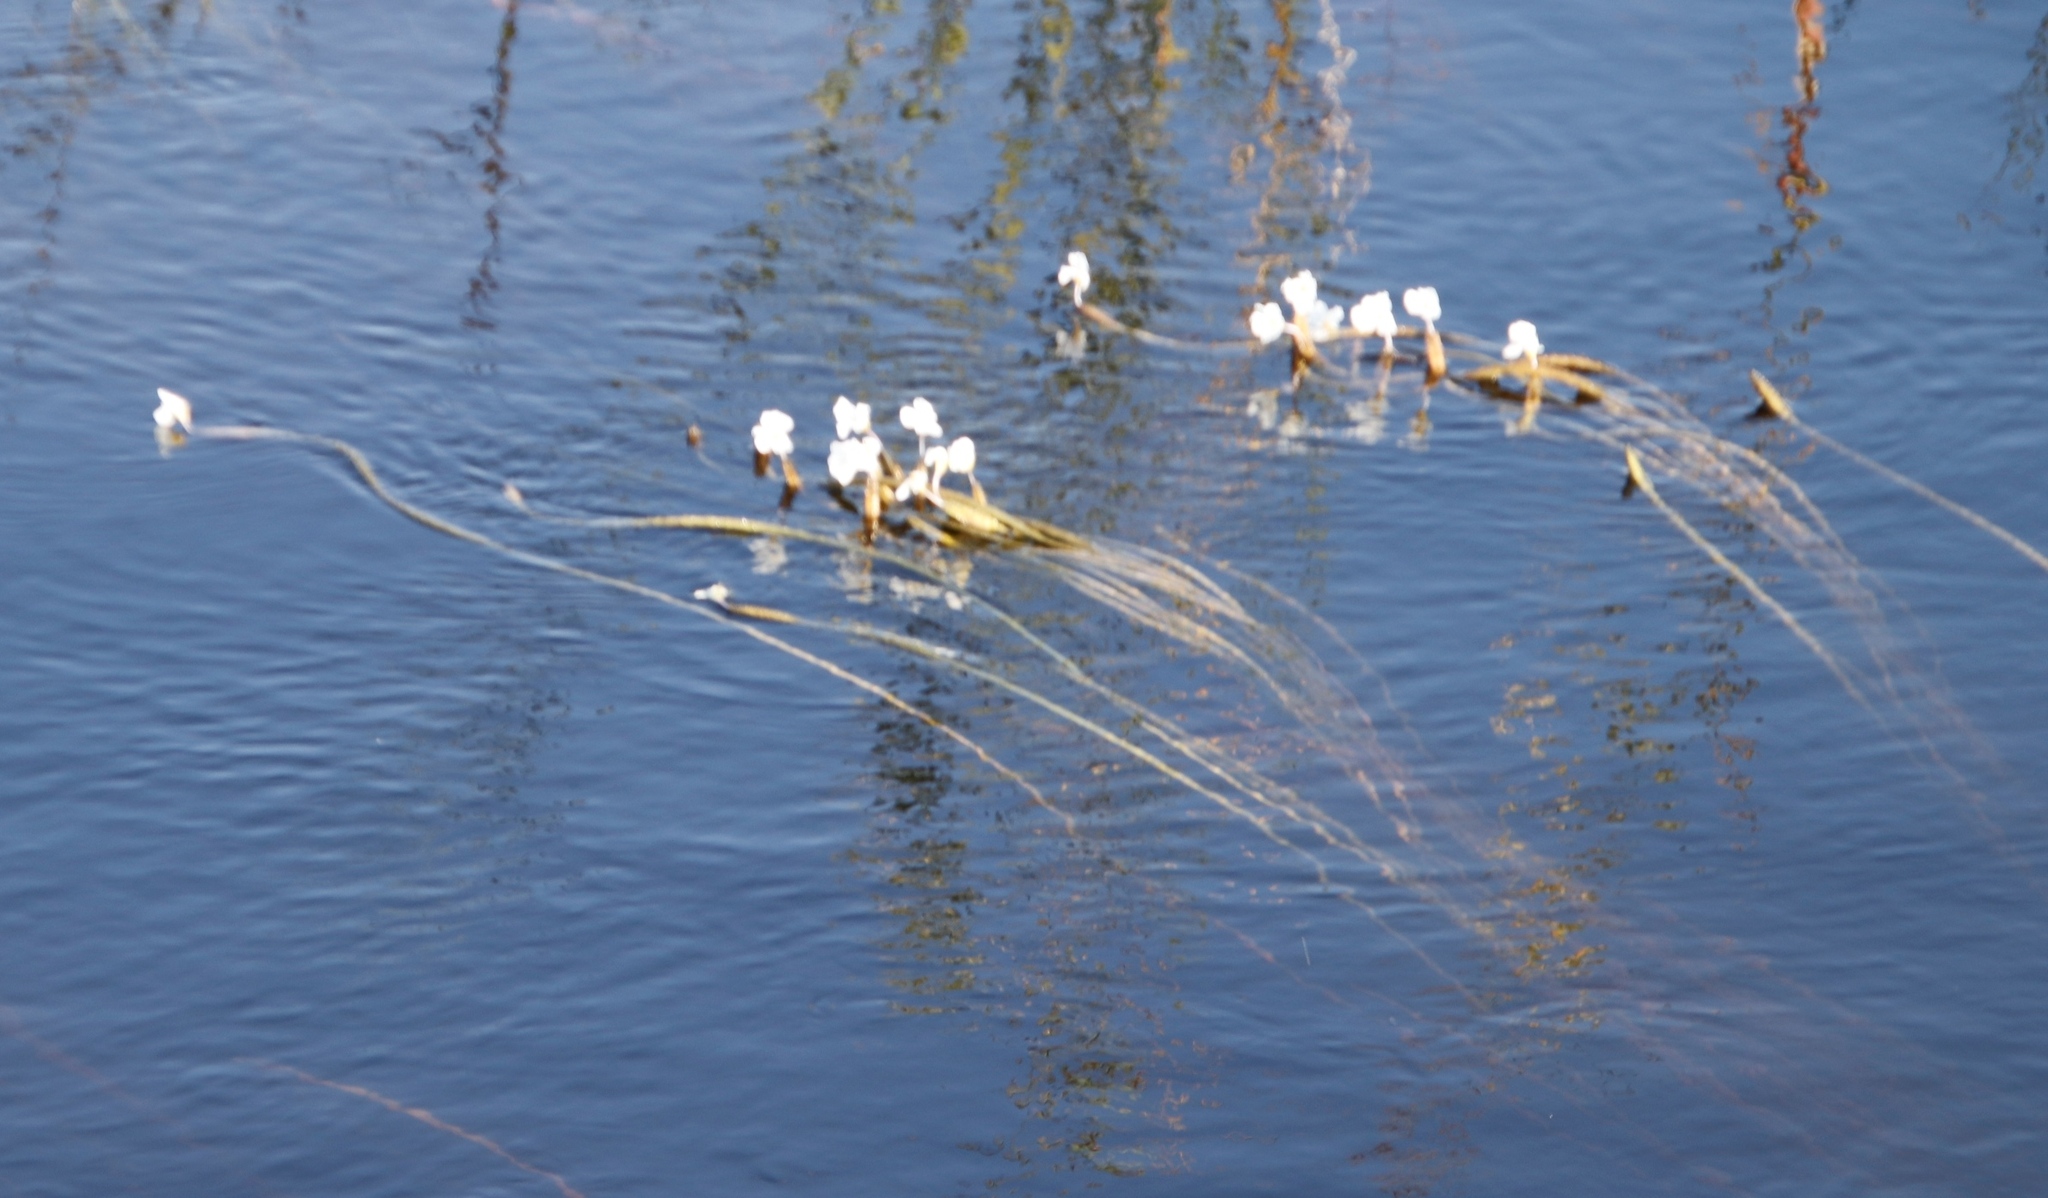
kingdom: Plantae
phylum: Tracheophyta
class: Liliopsida
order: Alismatales
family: Hydrocharitaceae
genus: Ottelia
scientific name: Ottelia muricata
